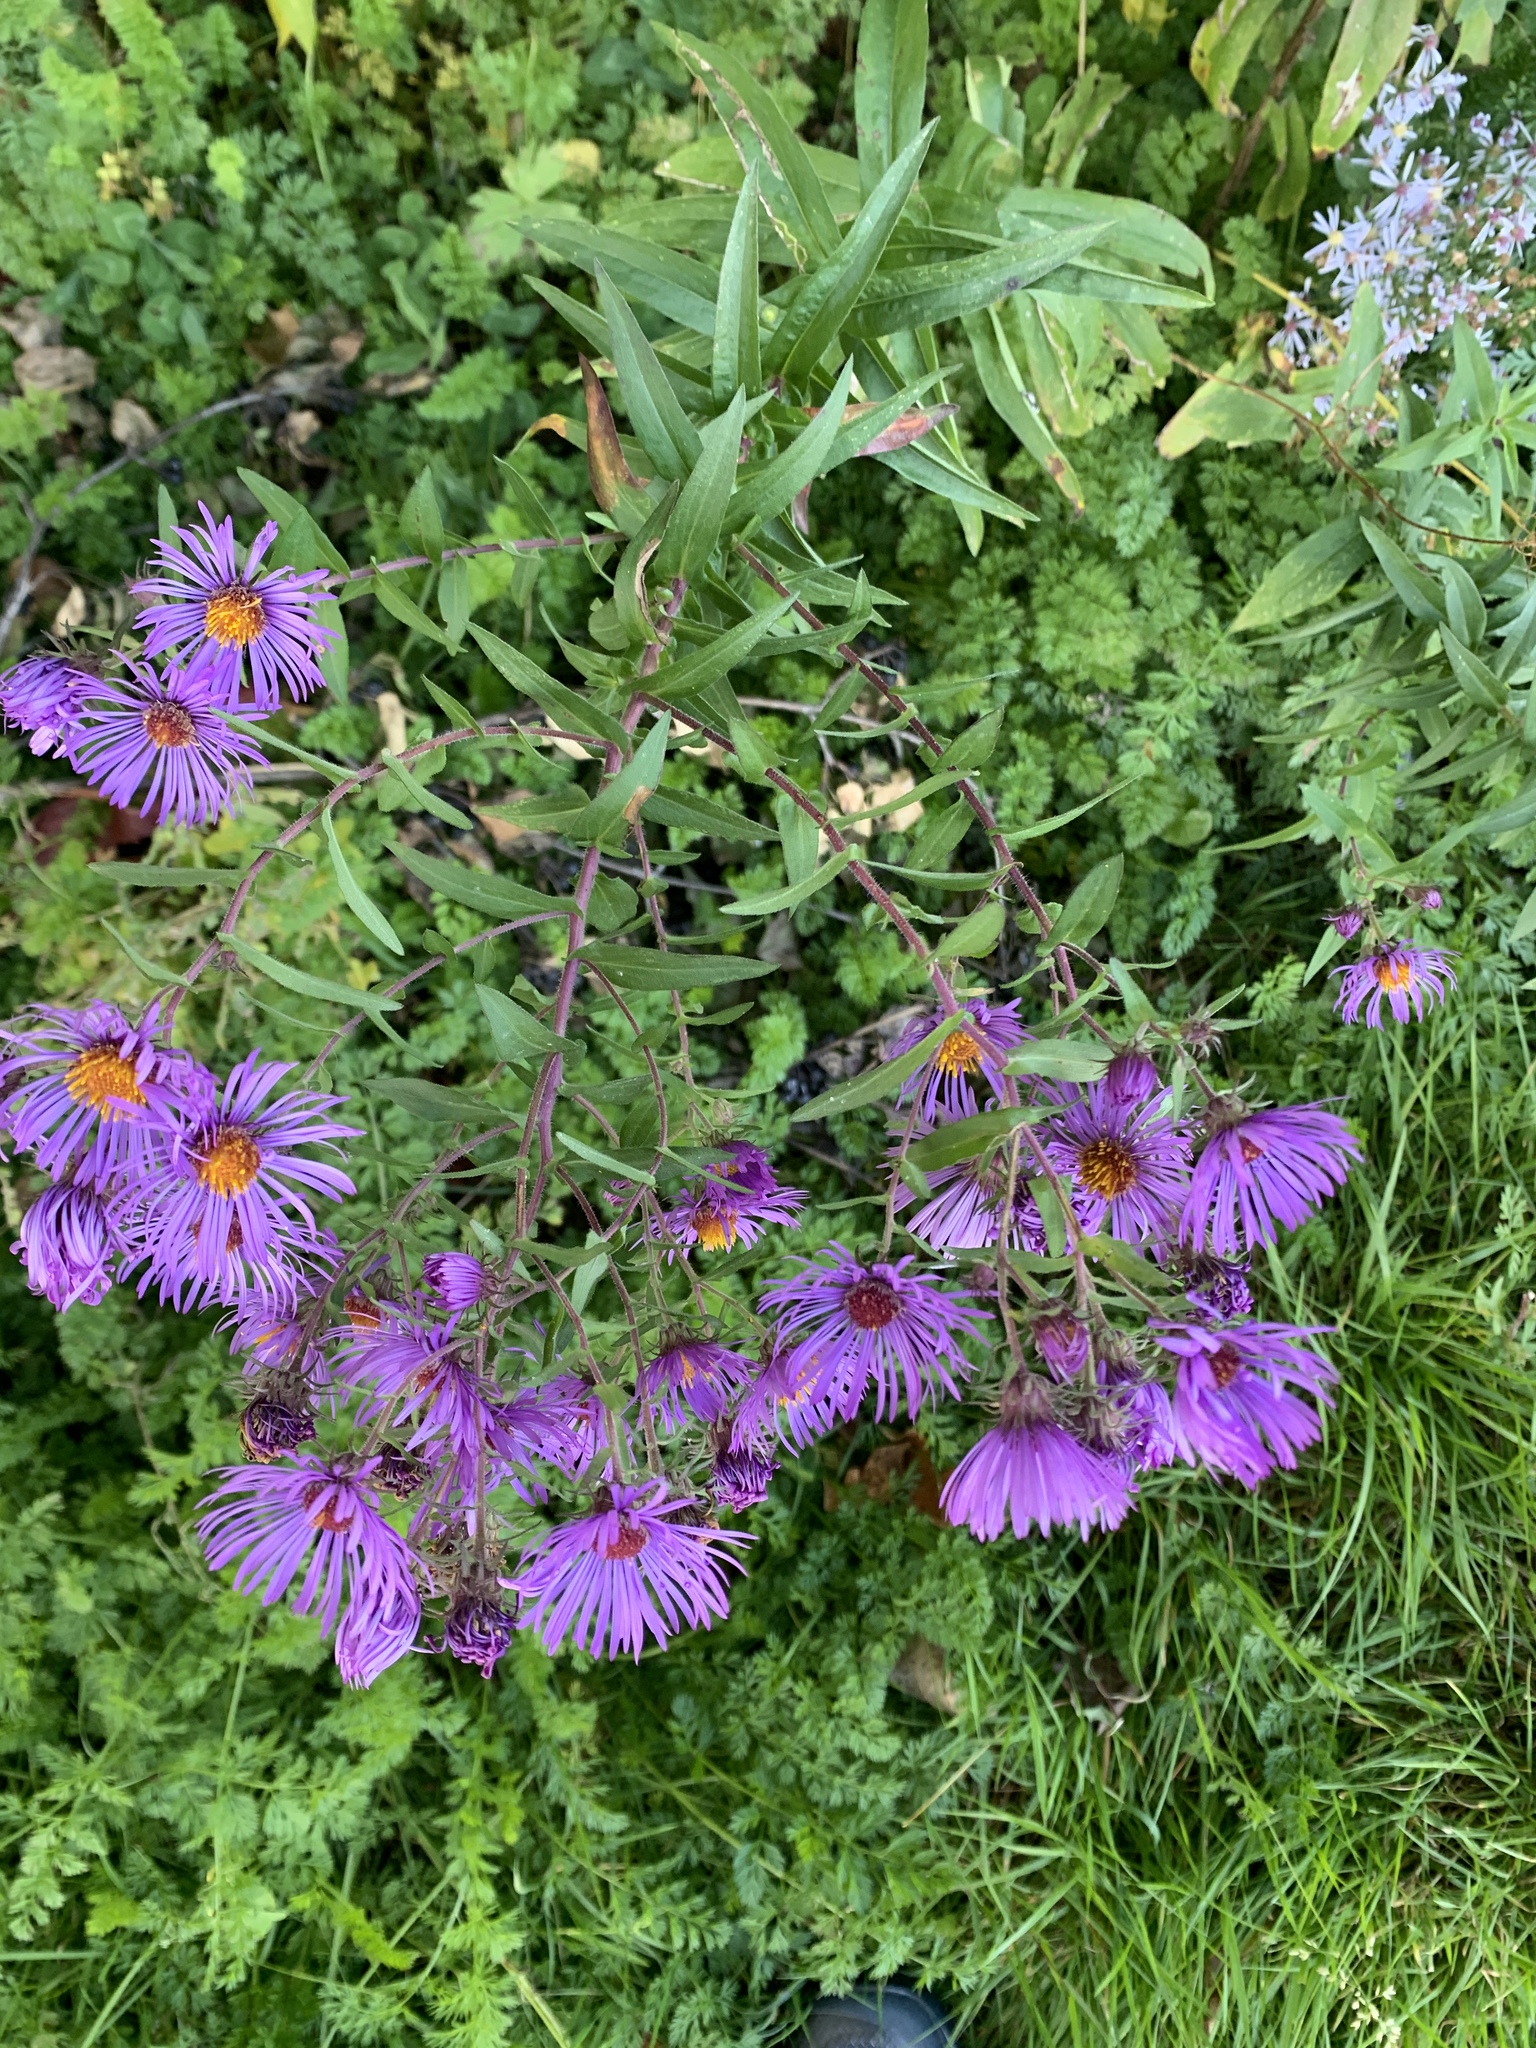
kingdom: Plantae
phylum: Tracheophyta
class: Magnoliopsida
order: Asterales
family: Asteraceae
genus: Symphyotrichum
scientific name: Symphyotrichum novae-angliae
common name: Michaelmas daisy
